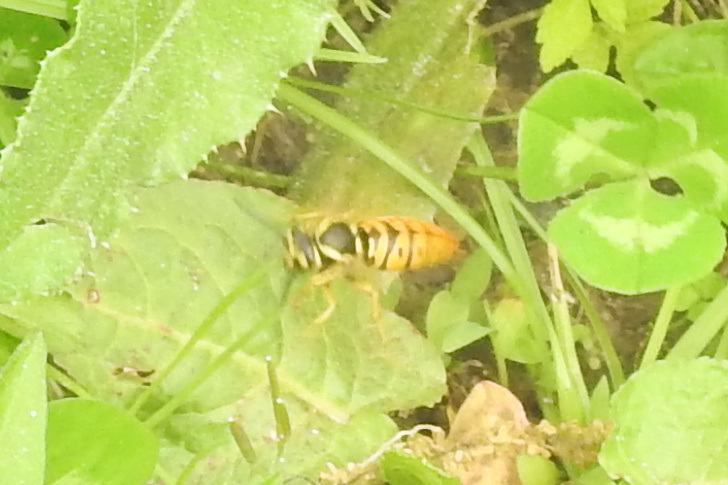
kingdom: Animalia
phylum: Arthropoda
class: Insecta
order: Hymenoptera
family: Vespidae
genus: Vespula
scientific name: Vespula maculifrons
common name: Eastern yellowjacket
